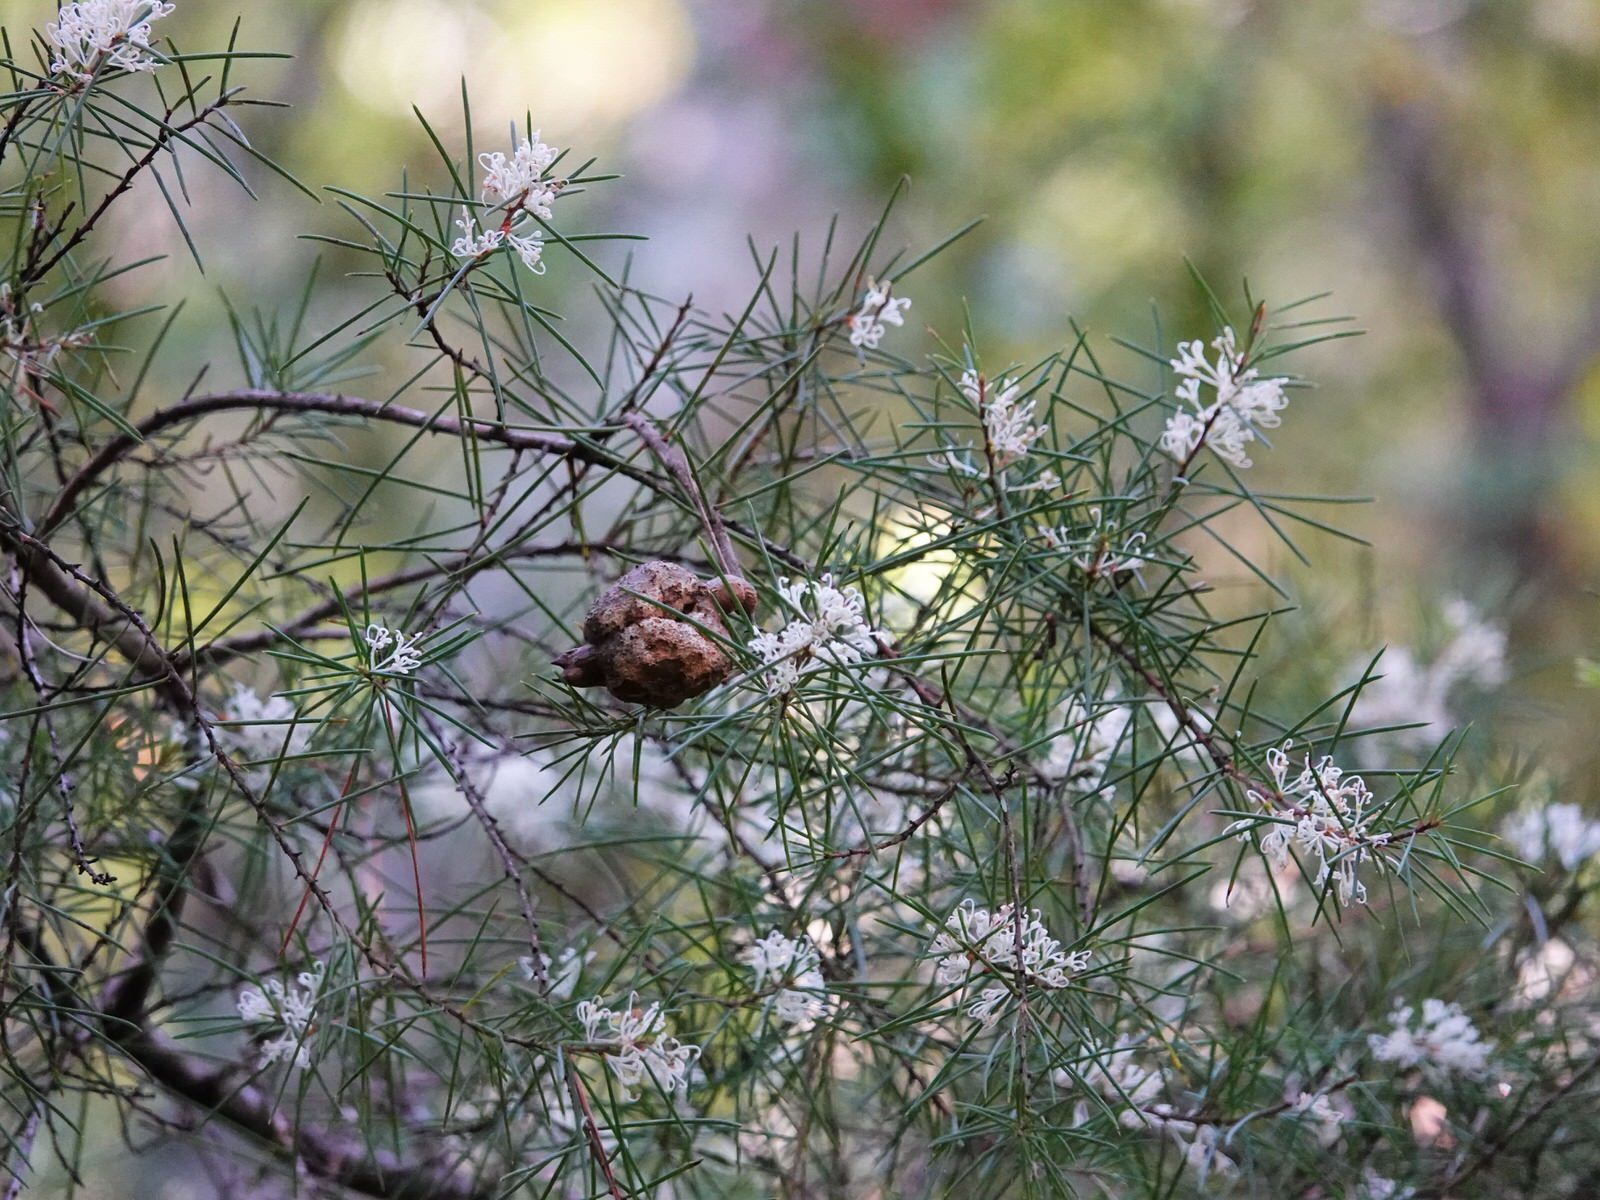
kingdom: Plantae
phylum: Tracheophyta
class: Magnoliopsida
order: Proteales
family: Proteaceae
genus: Hakea
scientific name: Hakea sericea
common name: Needle bush
